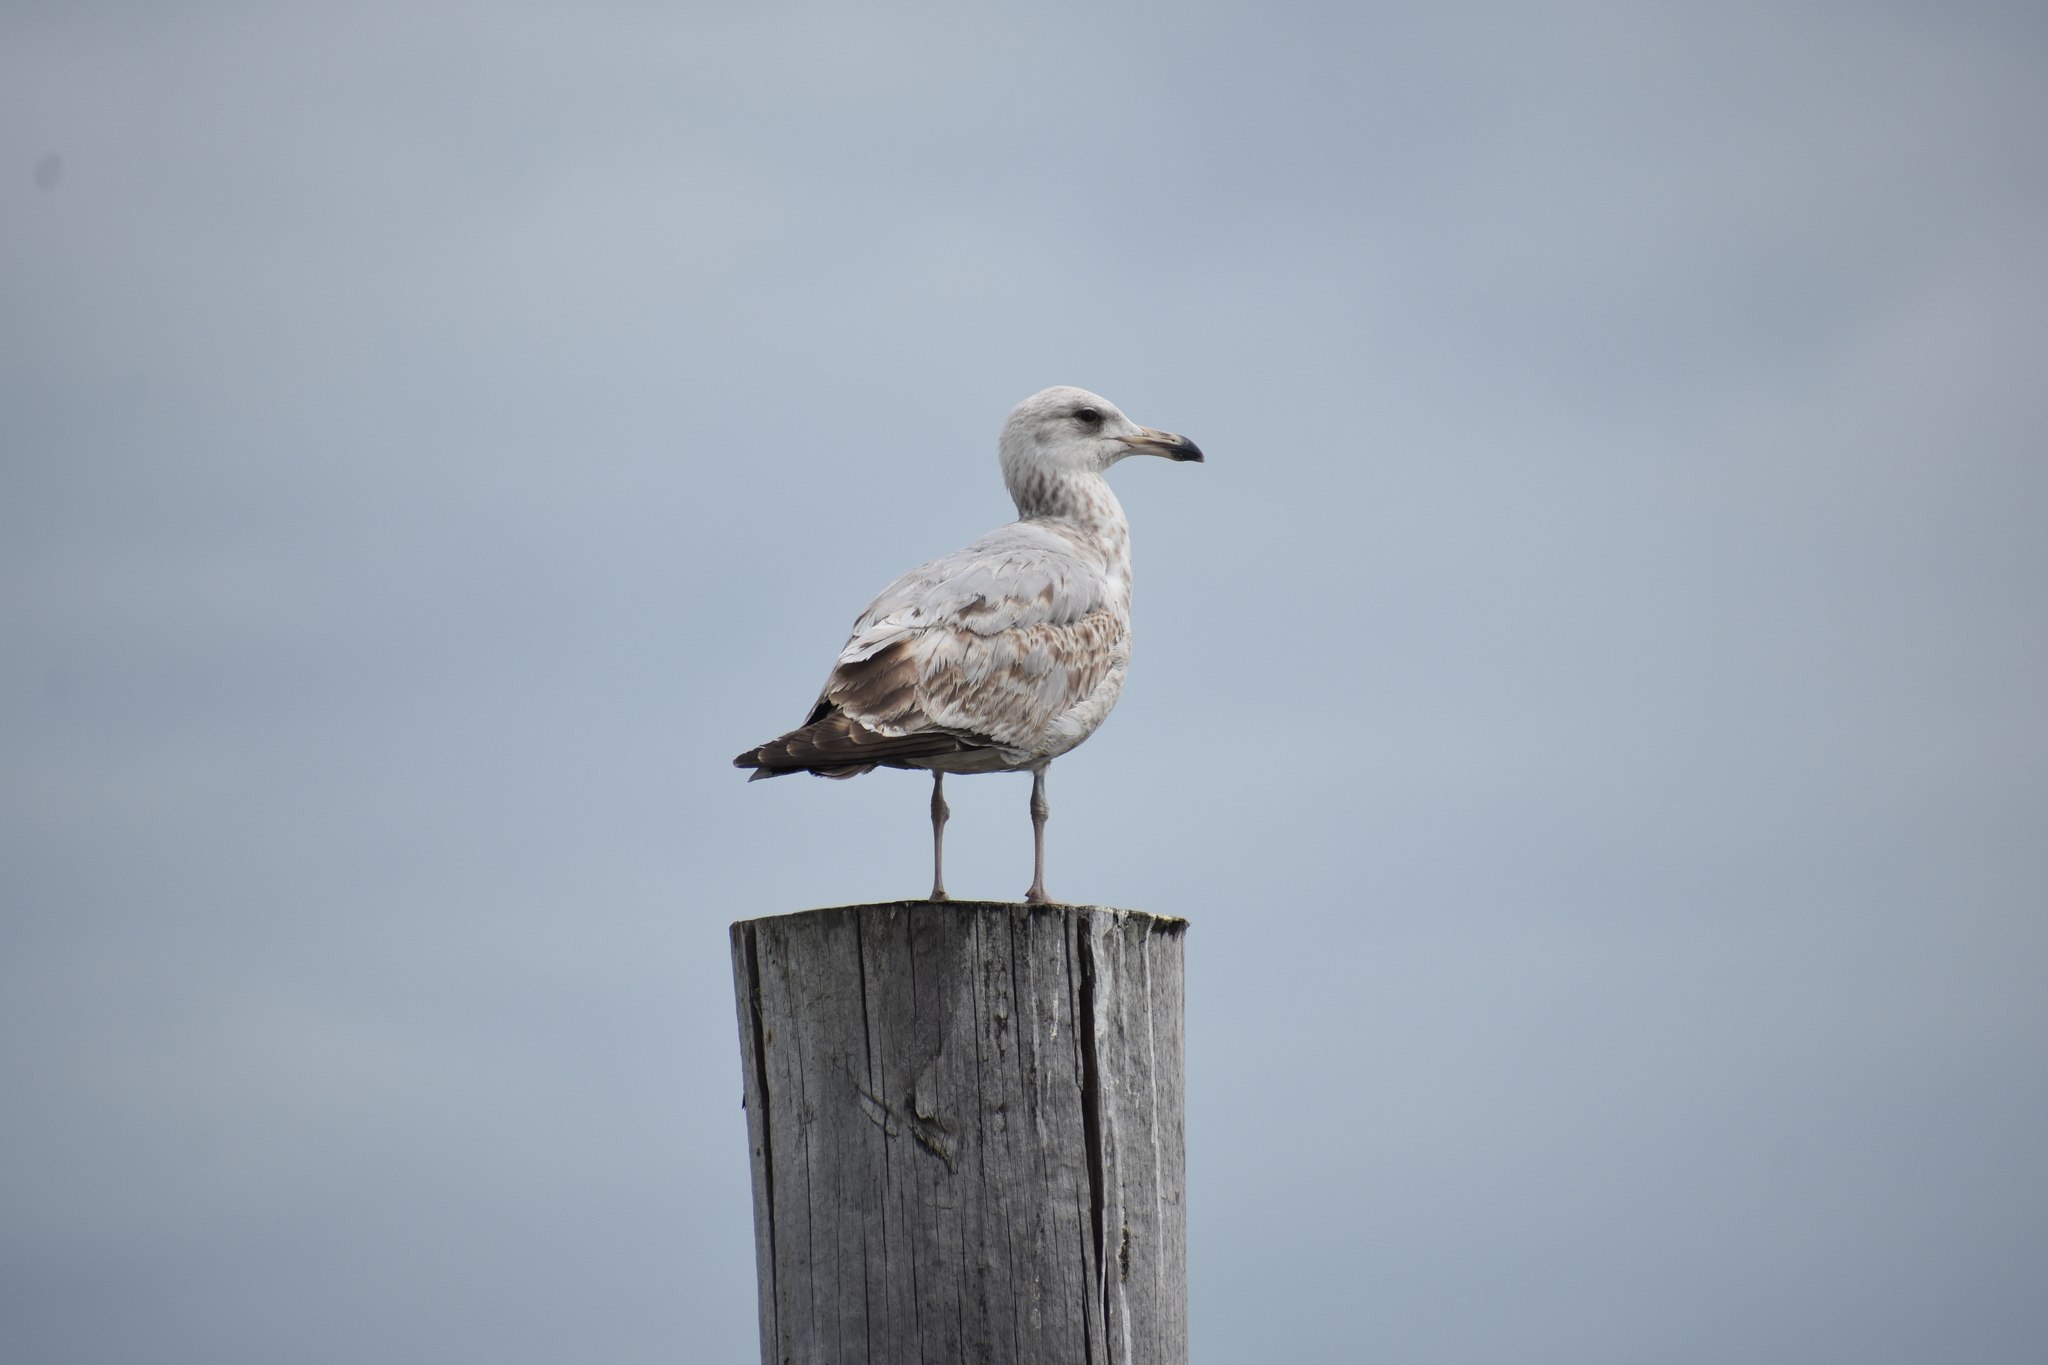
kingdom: Animalia
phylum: Chordata
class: Aves
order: Charadriiformes
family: Laridae
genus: Larus
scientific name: Larus argentatus
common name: Herring gull
